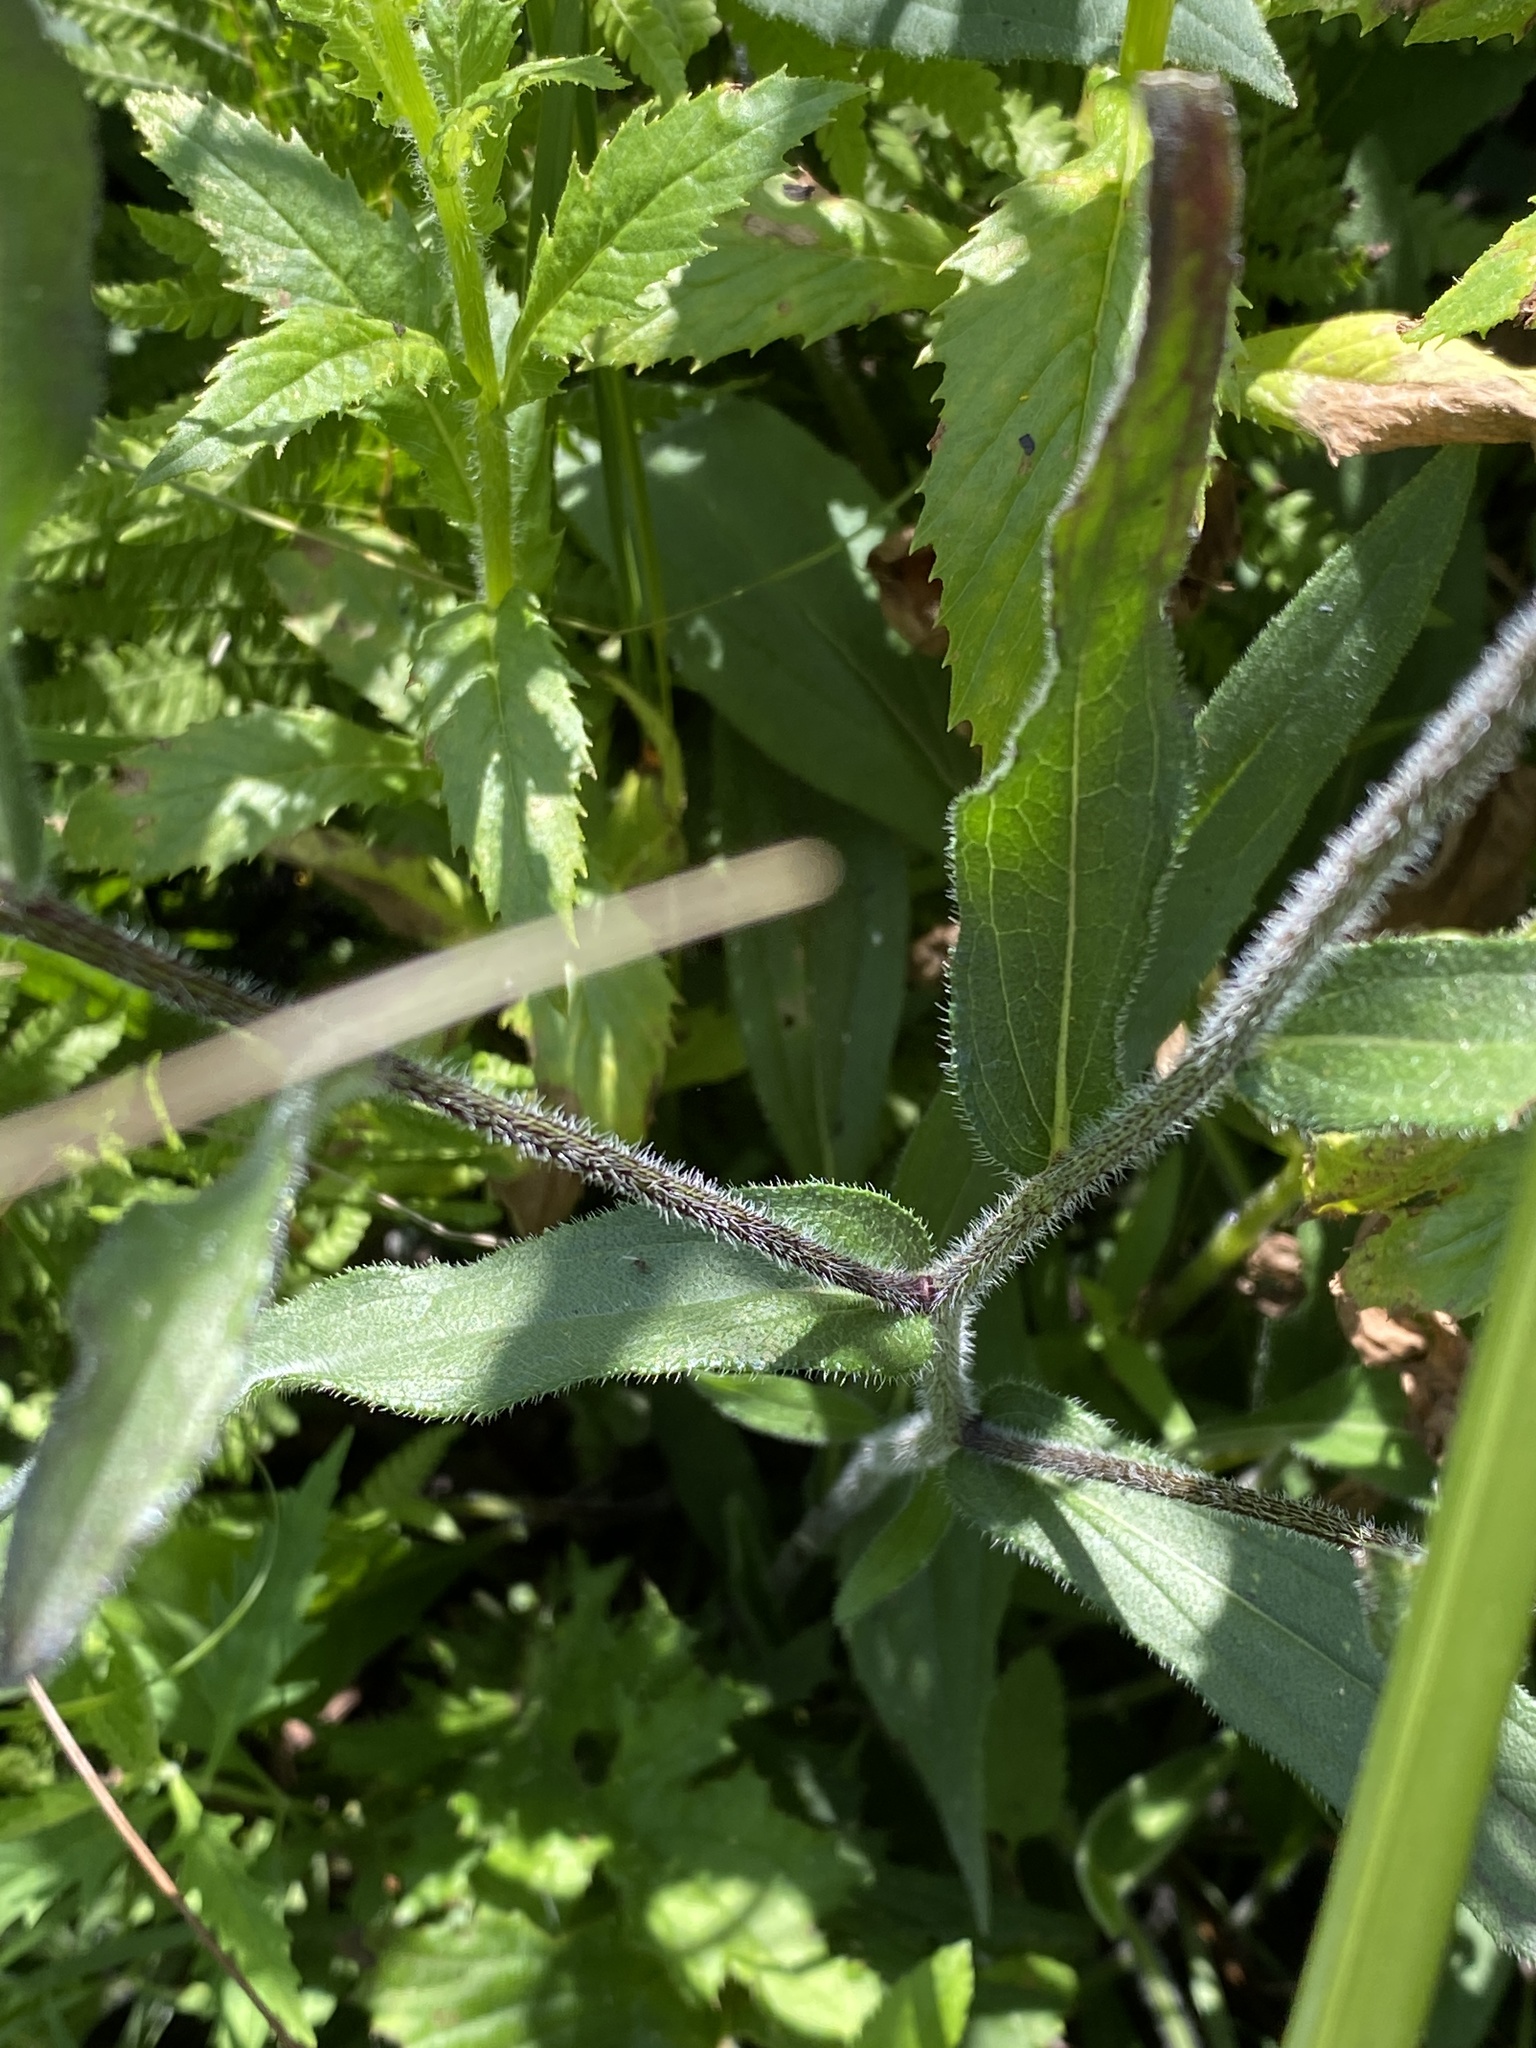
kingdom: Plantae
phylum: Tracheophyta
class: Magnoliopsida
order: Asterales
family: Asteraceae
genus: Rudbeckia
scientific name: Rudbeckia hirta
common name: Black-eyed-susan
